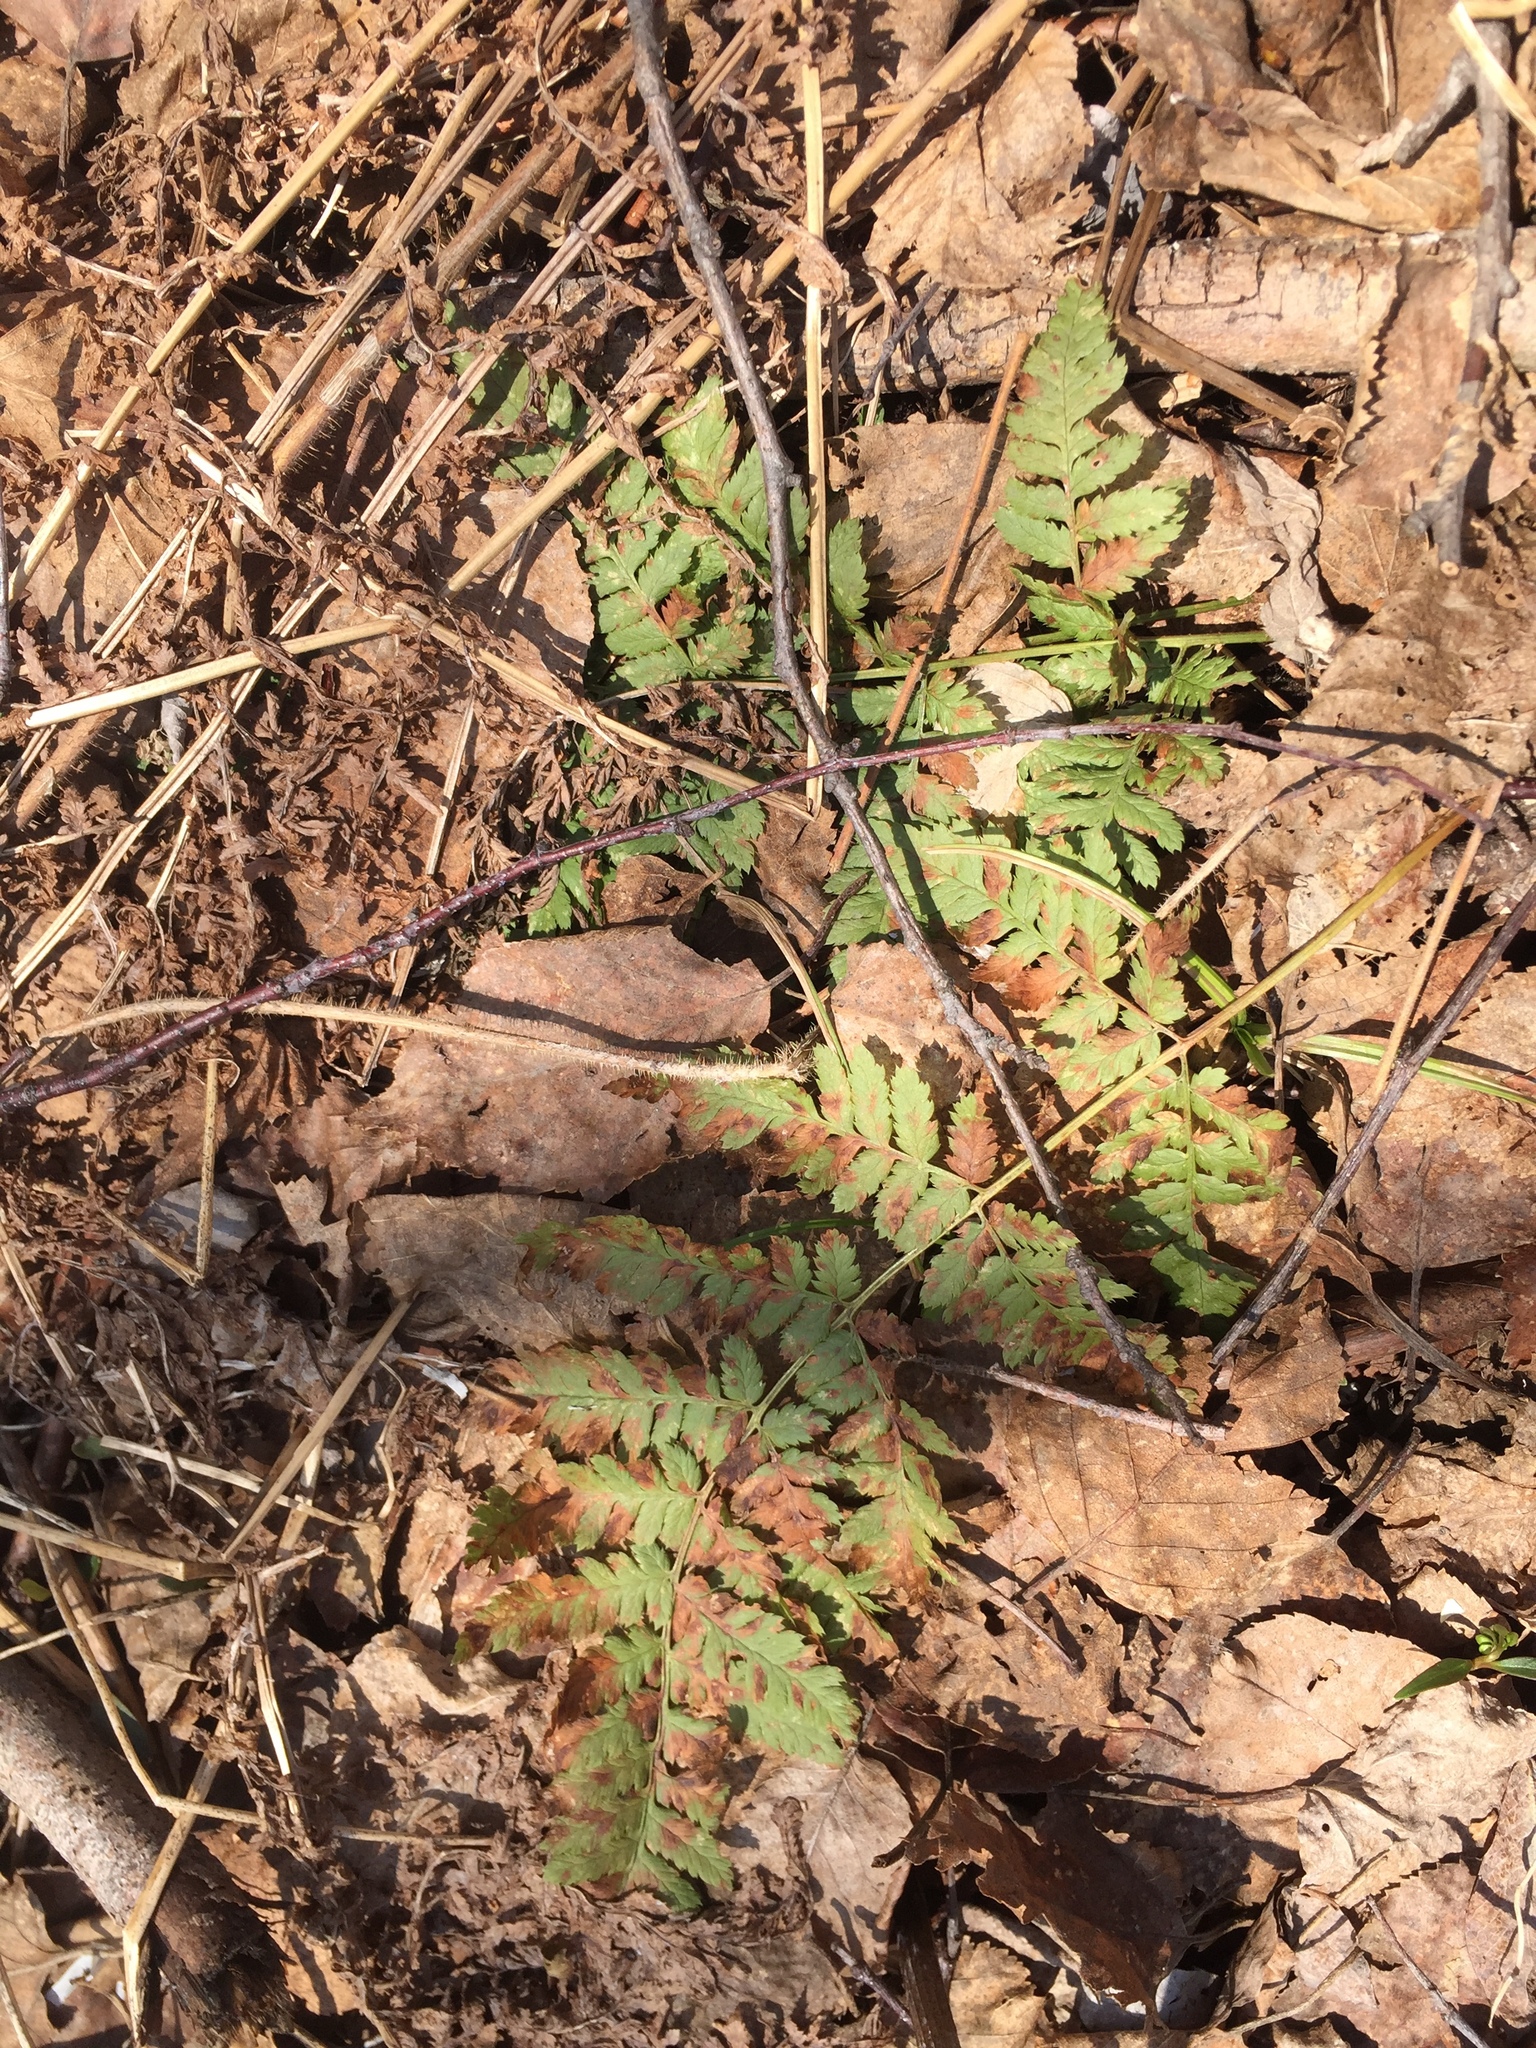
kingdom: Plantae
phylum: Tracheophyta
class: Polypodiopsida
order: Polypodiales
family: Dryopteridaceae
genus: Dryopteris
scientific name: Dryopteris intermedia
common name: Evergreen wood fern
